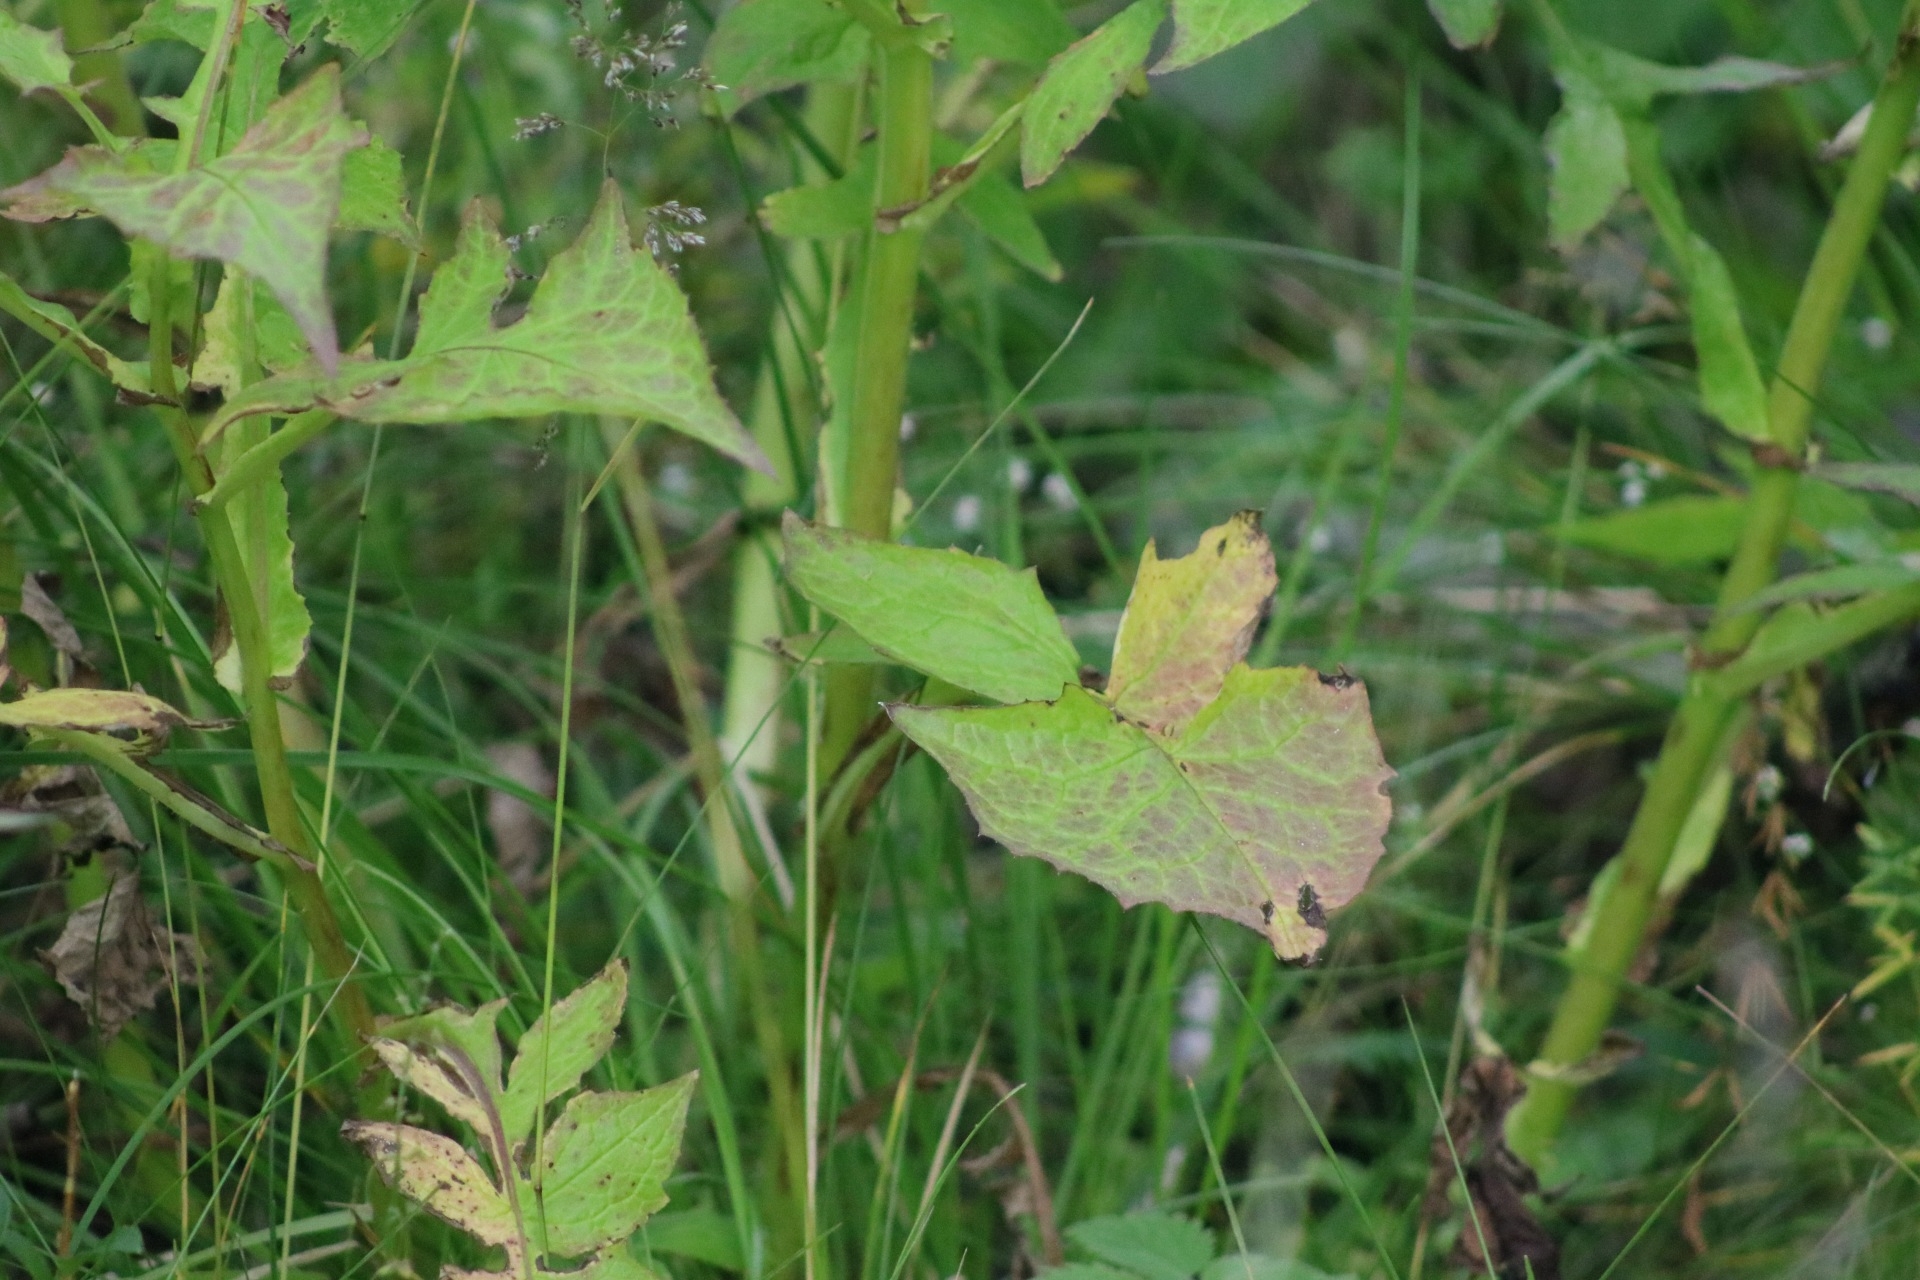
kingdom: Plantae
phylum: Tracheophyta
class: Magnoliopsida
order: Asterales
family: Asteraceae
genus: Cicerbita
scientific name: Cicerbita alpina
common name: Alpine blue-sow-thistle
